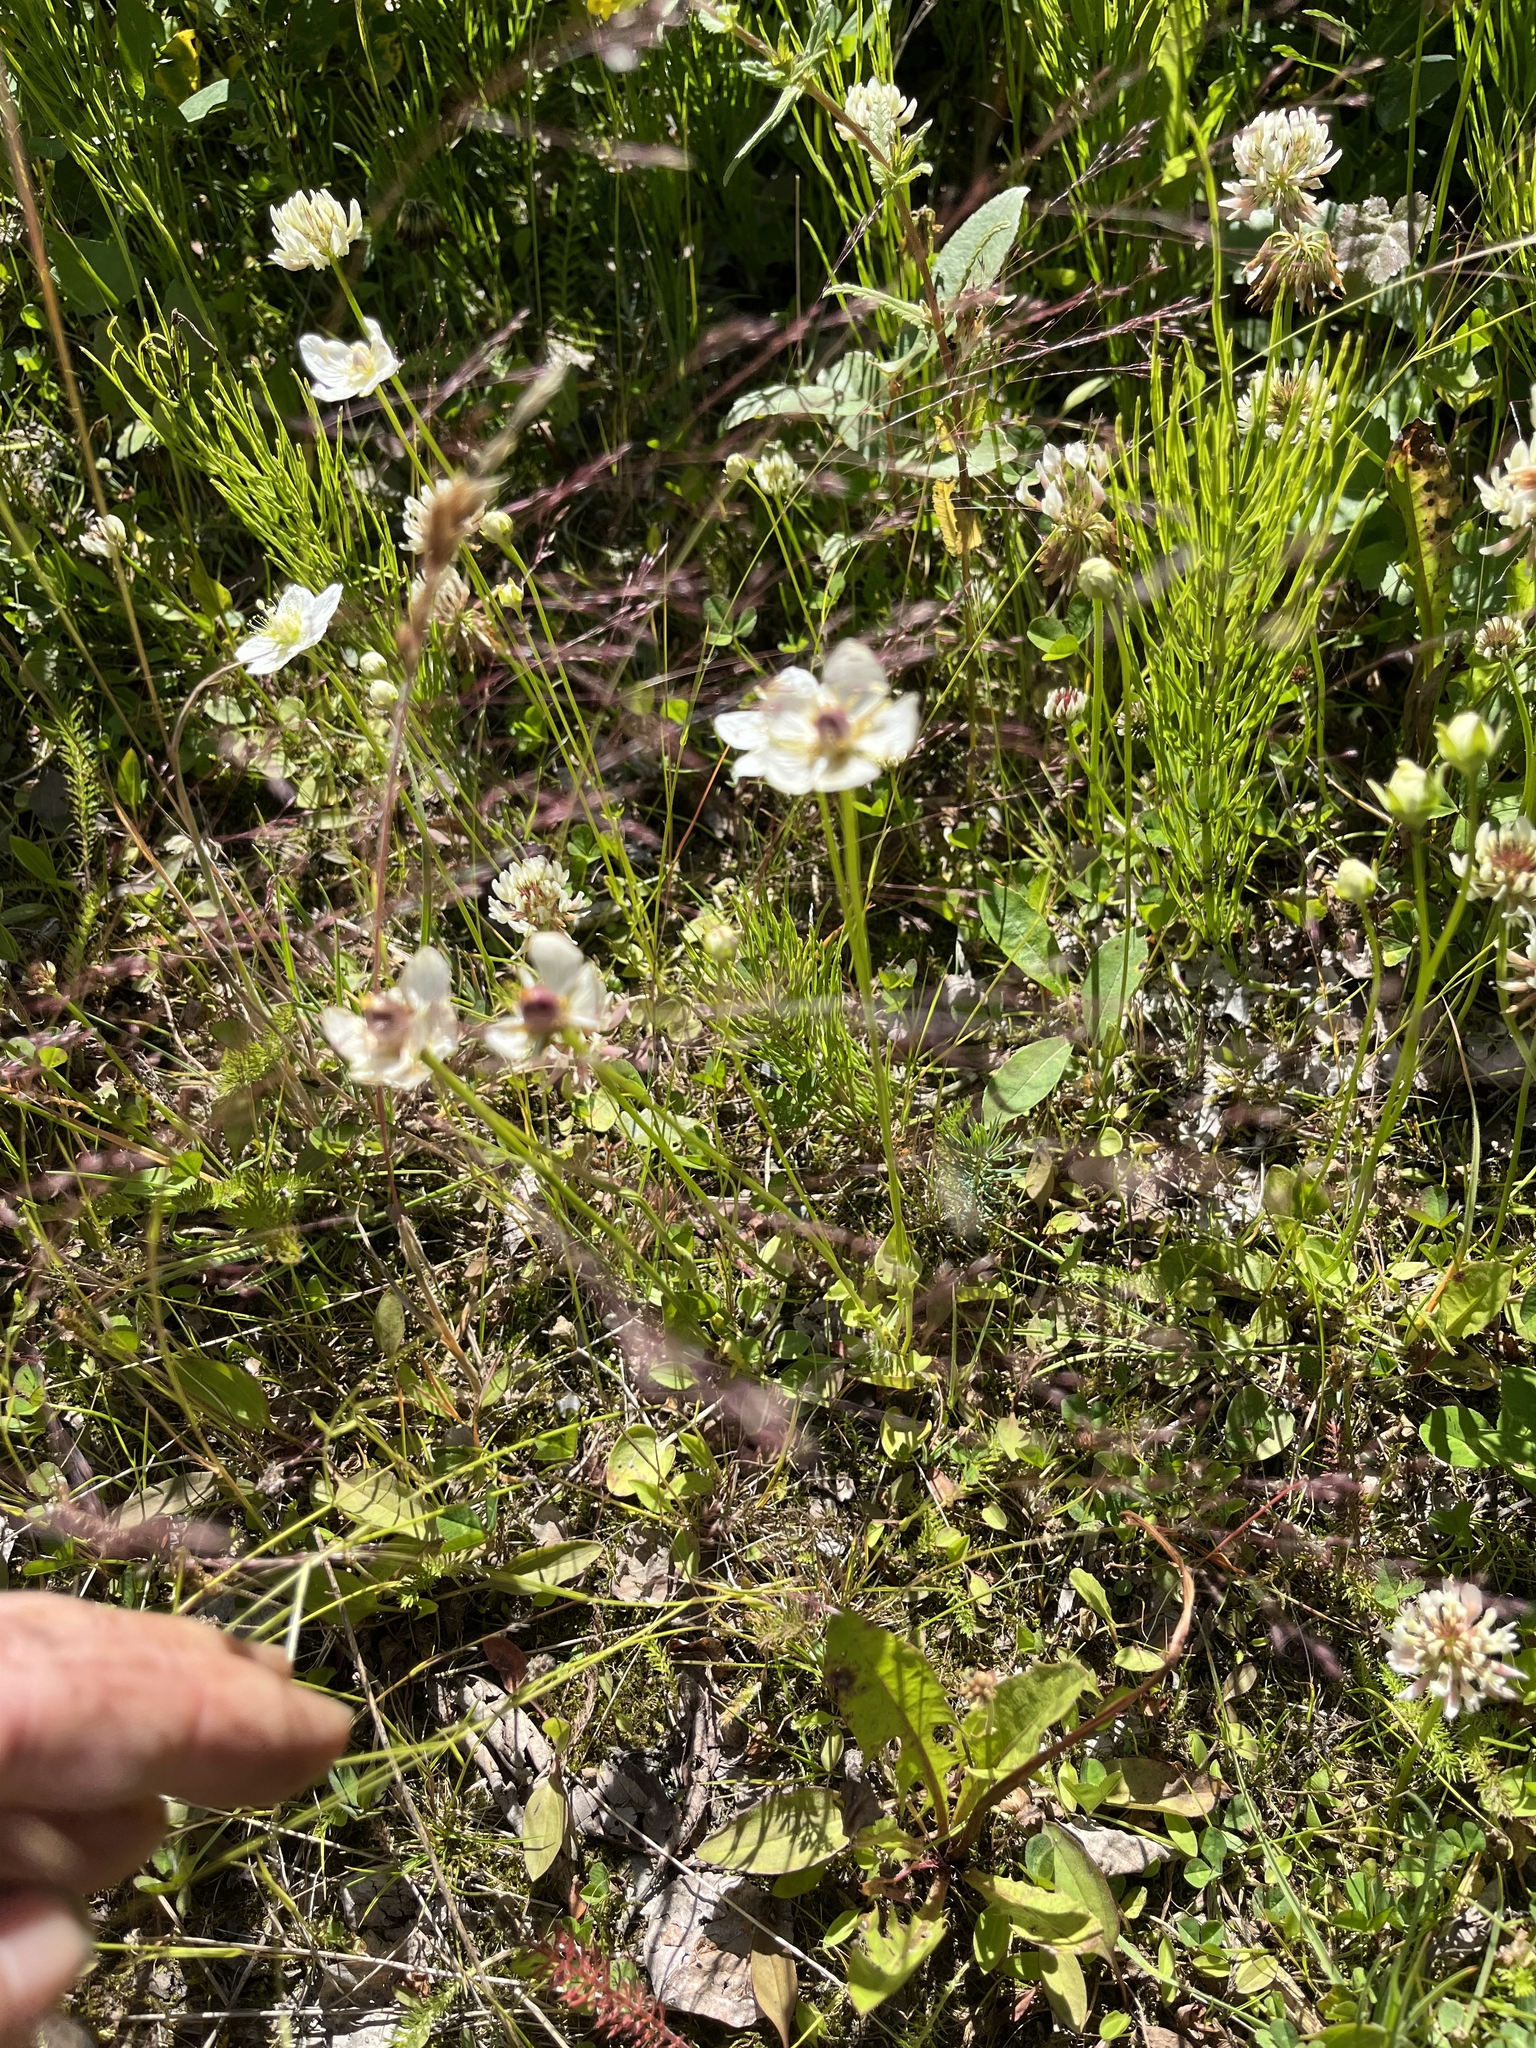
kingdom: Plantae
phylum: Tracheophyta
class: Magnoliopsida
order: Celastrales
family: Parnassiaceae
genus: Parnassia
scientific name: Parnassia palustris
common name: Grass-of-parnassus
